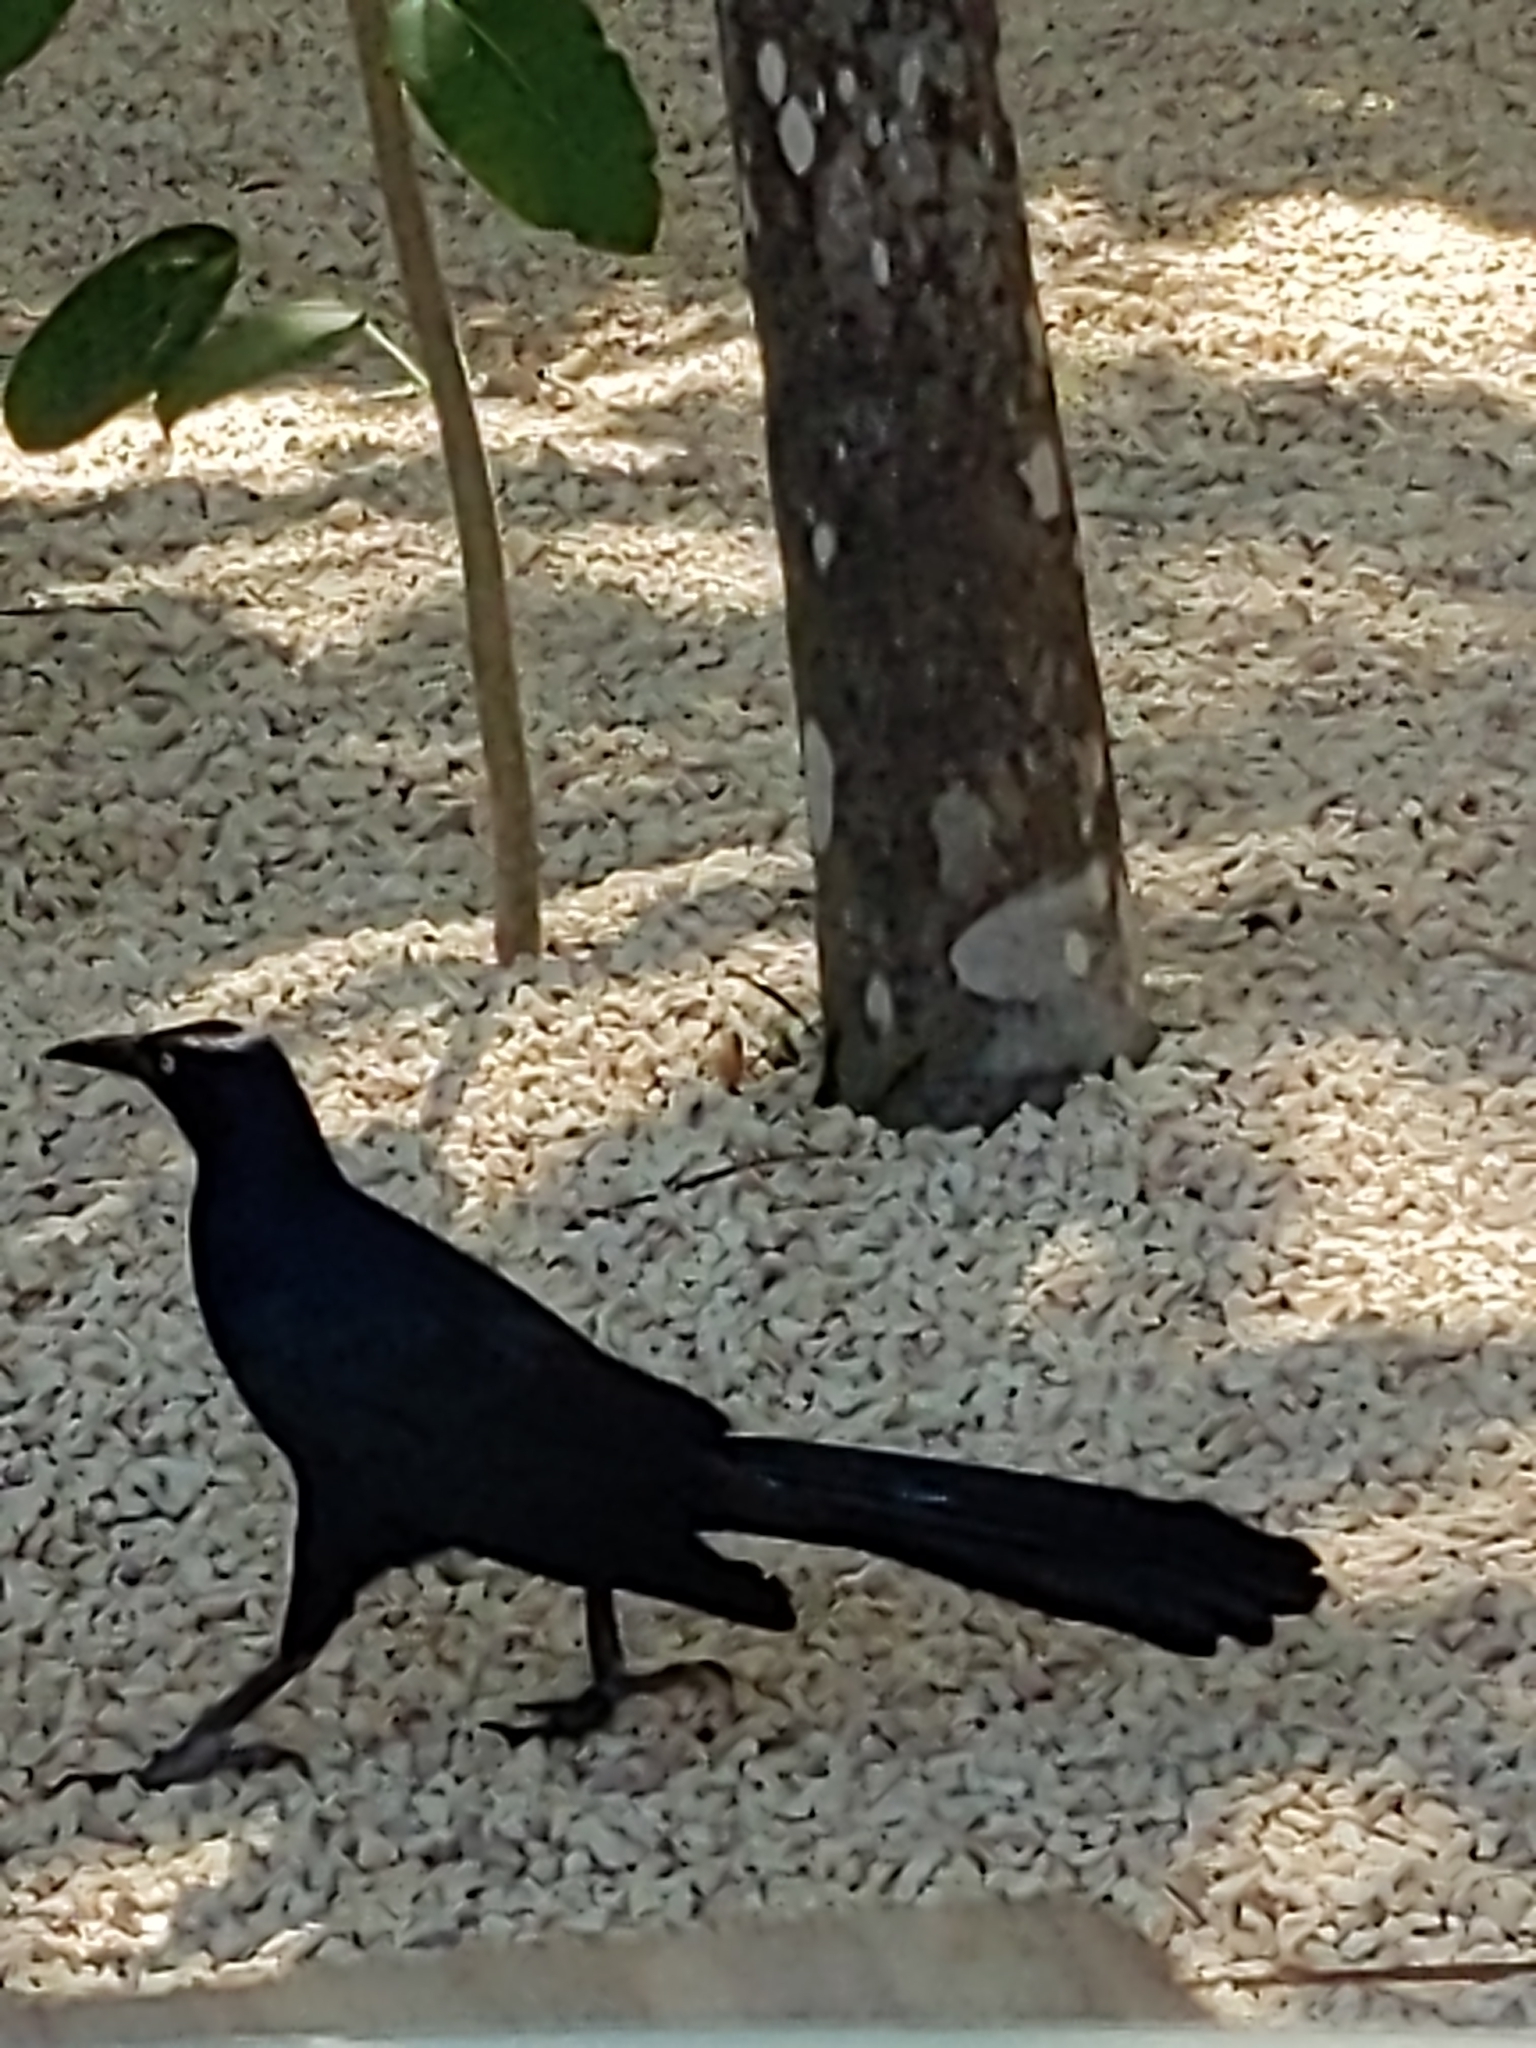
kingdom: Animalia
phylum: Chordata
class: Aves
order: Passeriformes
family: Icteridae
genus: Quiscalus
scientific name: Quiscalus mexicanus
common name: Great-tailed grackle
